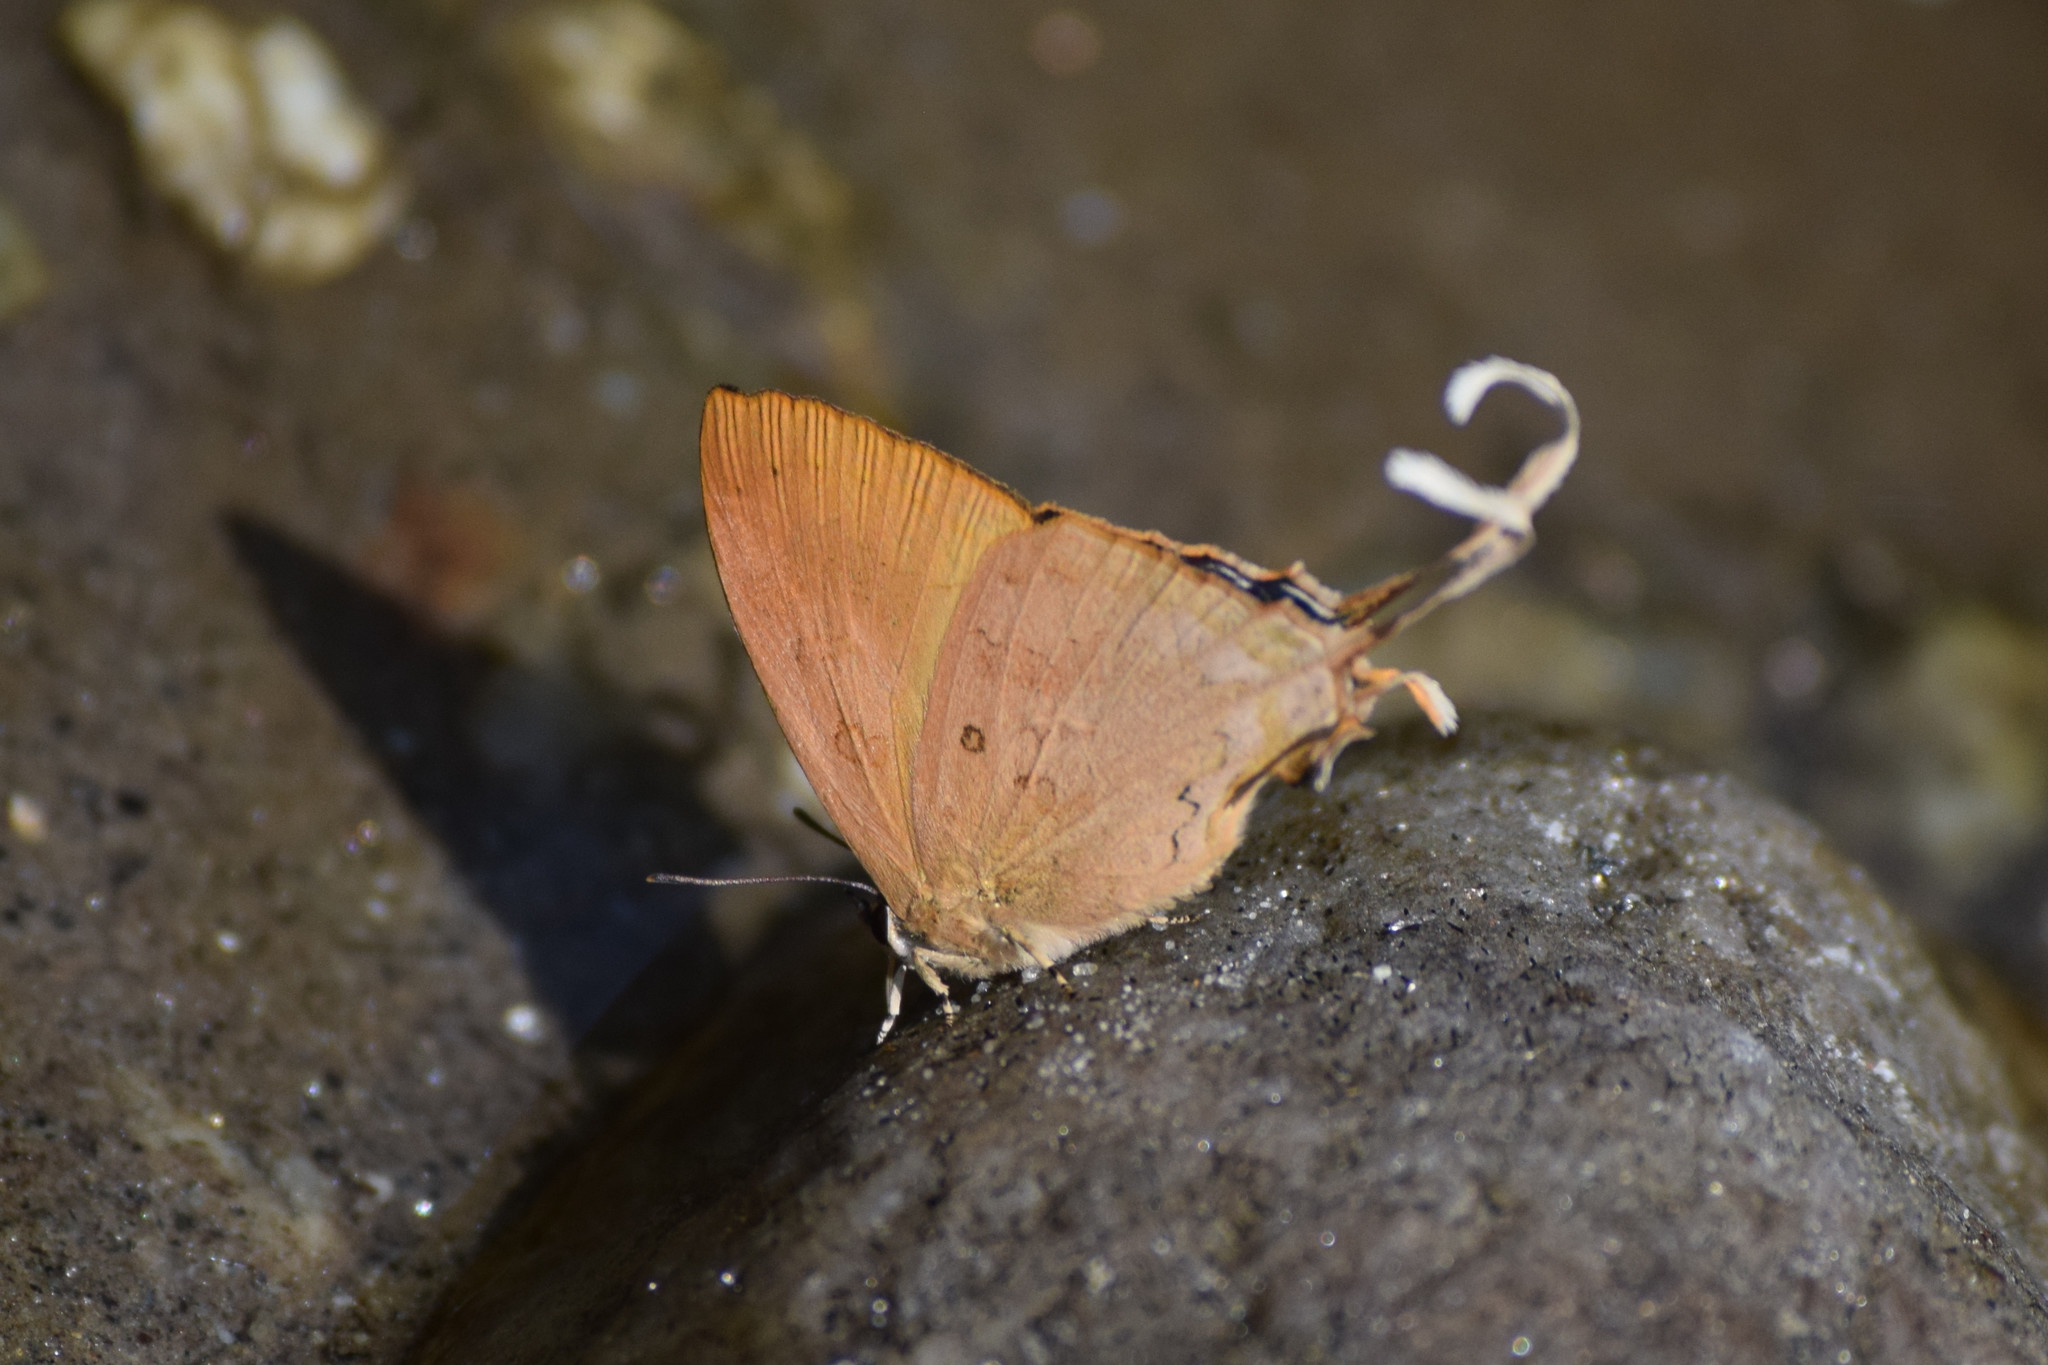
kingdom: Animalia
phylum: Arthropoda
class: Insecta
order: Lepidoptera
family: Lycaenidae
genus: Ticherra
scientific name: Ticherra acte
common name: Blue imperial
